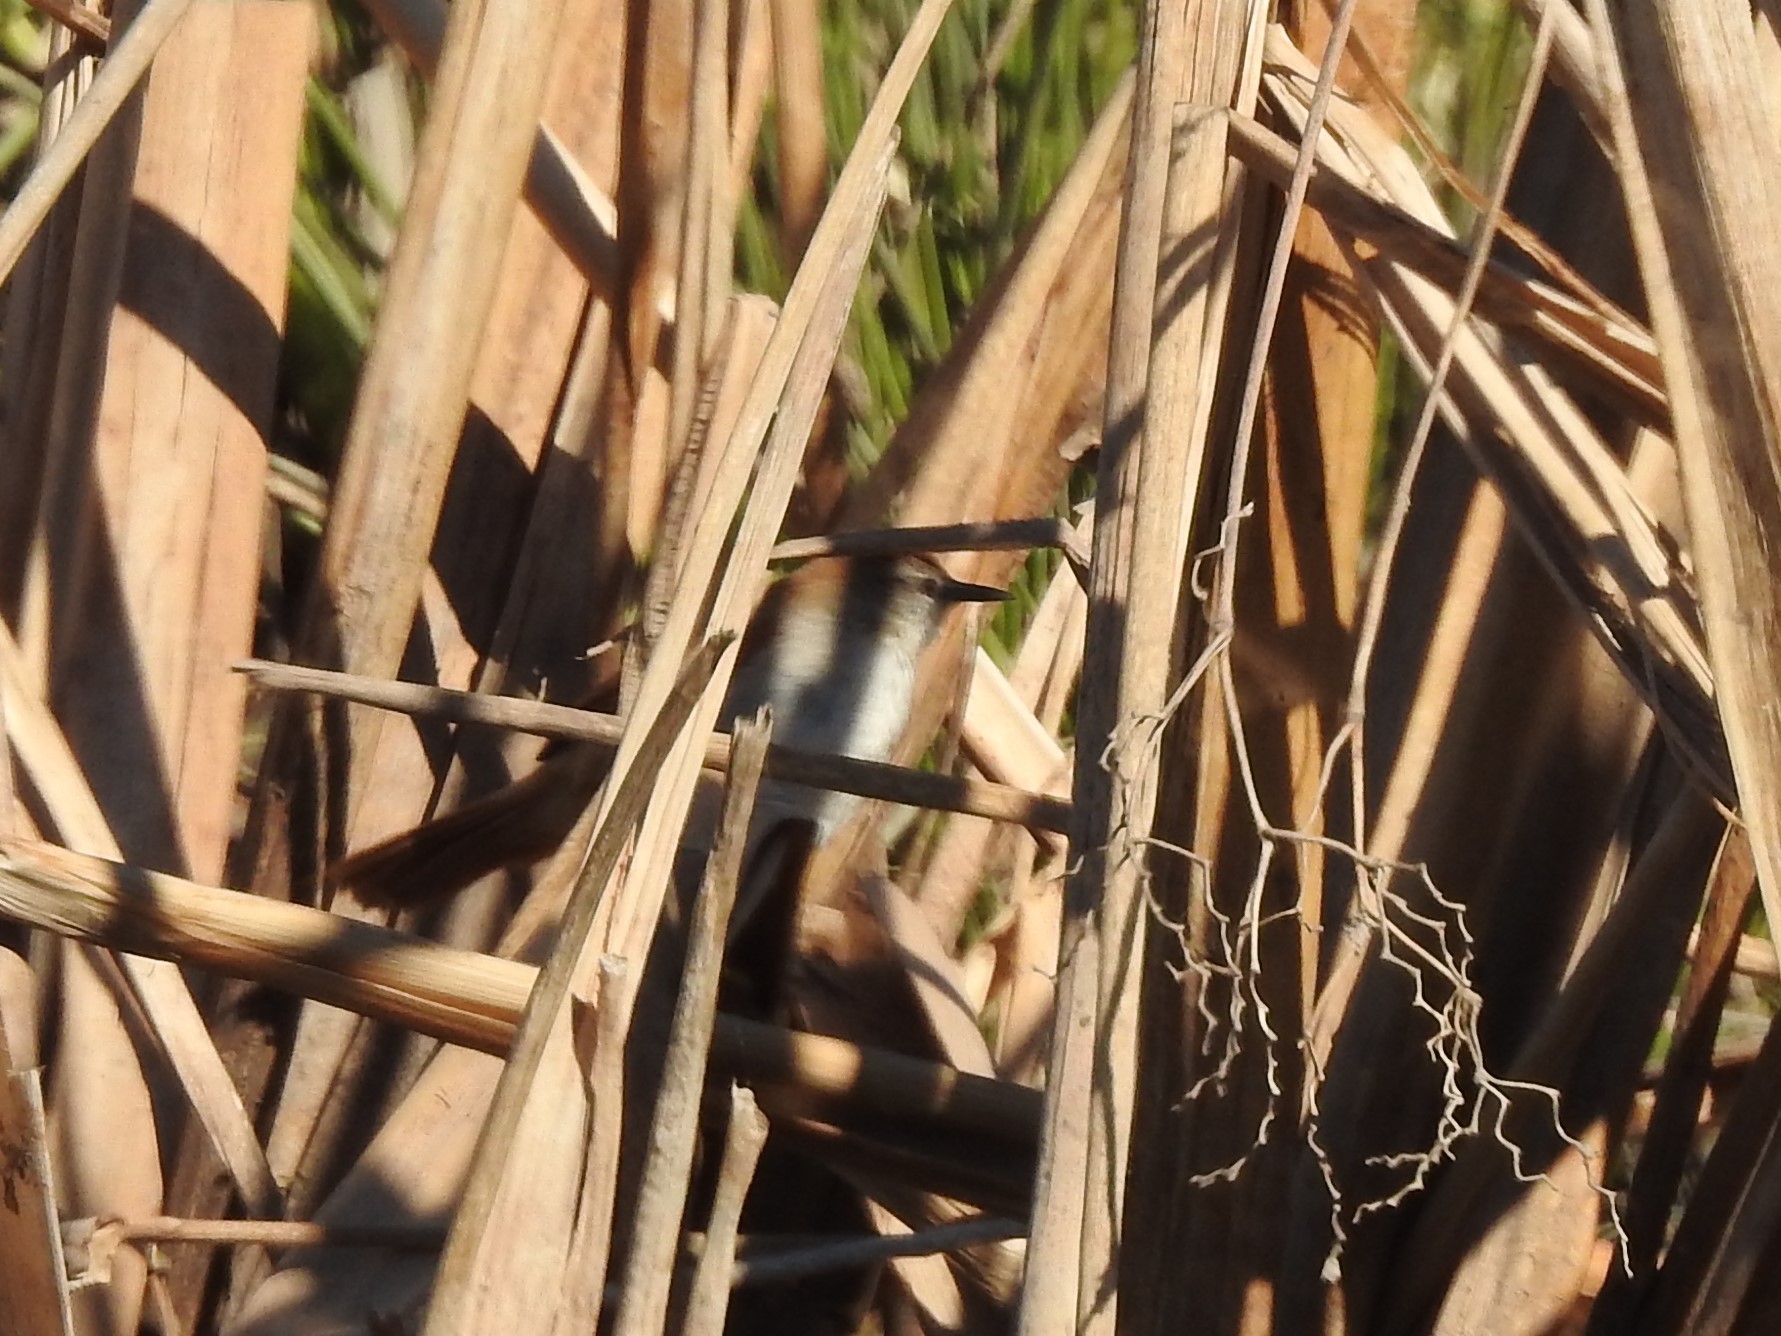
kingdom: Animalia
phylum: Chordata
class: Aves
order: Passeriformes
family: Furnariidae
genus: Certhiaxis
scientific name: Certhiaxis cinnamomeus
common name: Yellow-chinned spinetail
